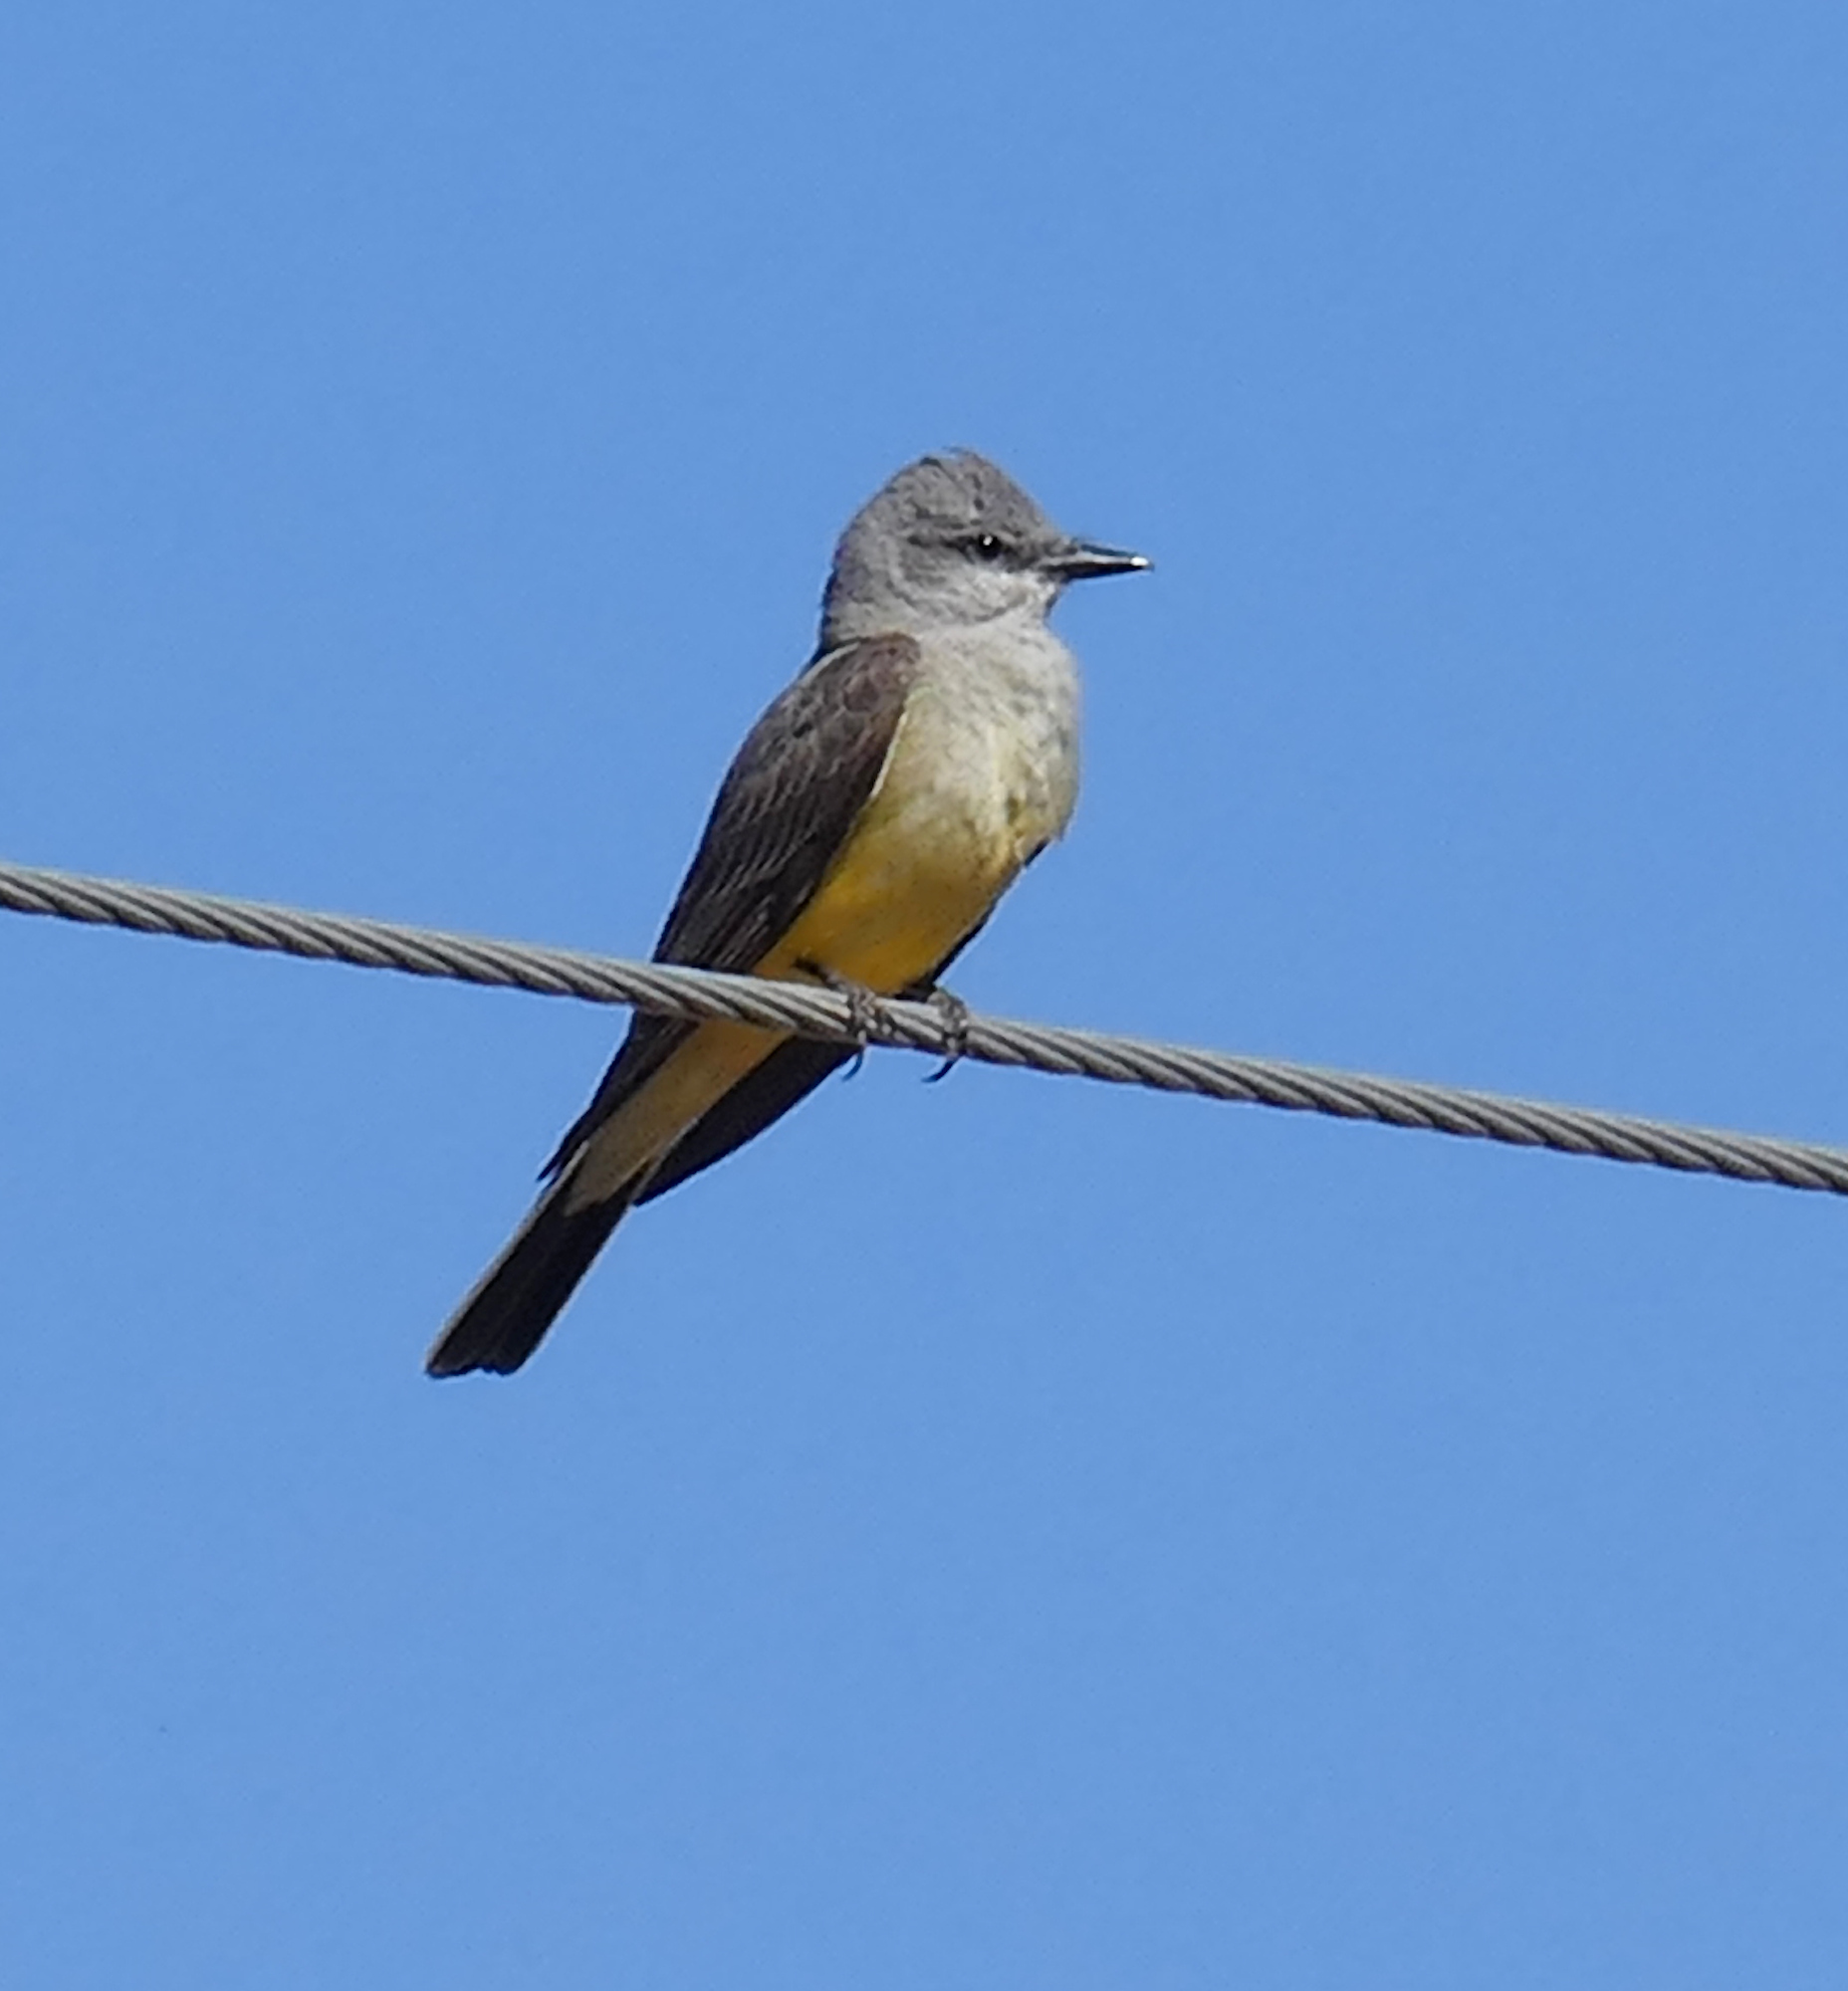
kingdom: Animalia
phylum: Chordata
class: Aves
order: Passeriformes
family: Tyrannidae
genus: Tyrannus
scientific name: Tyrannus verticalis
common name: Western kingbird
